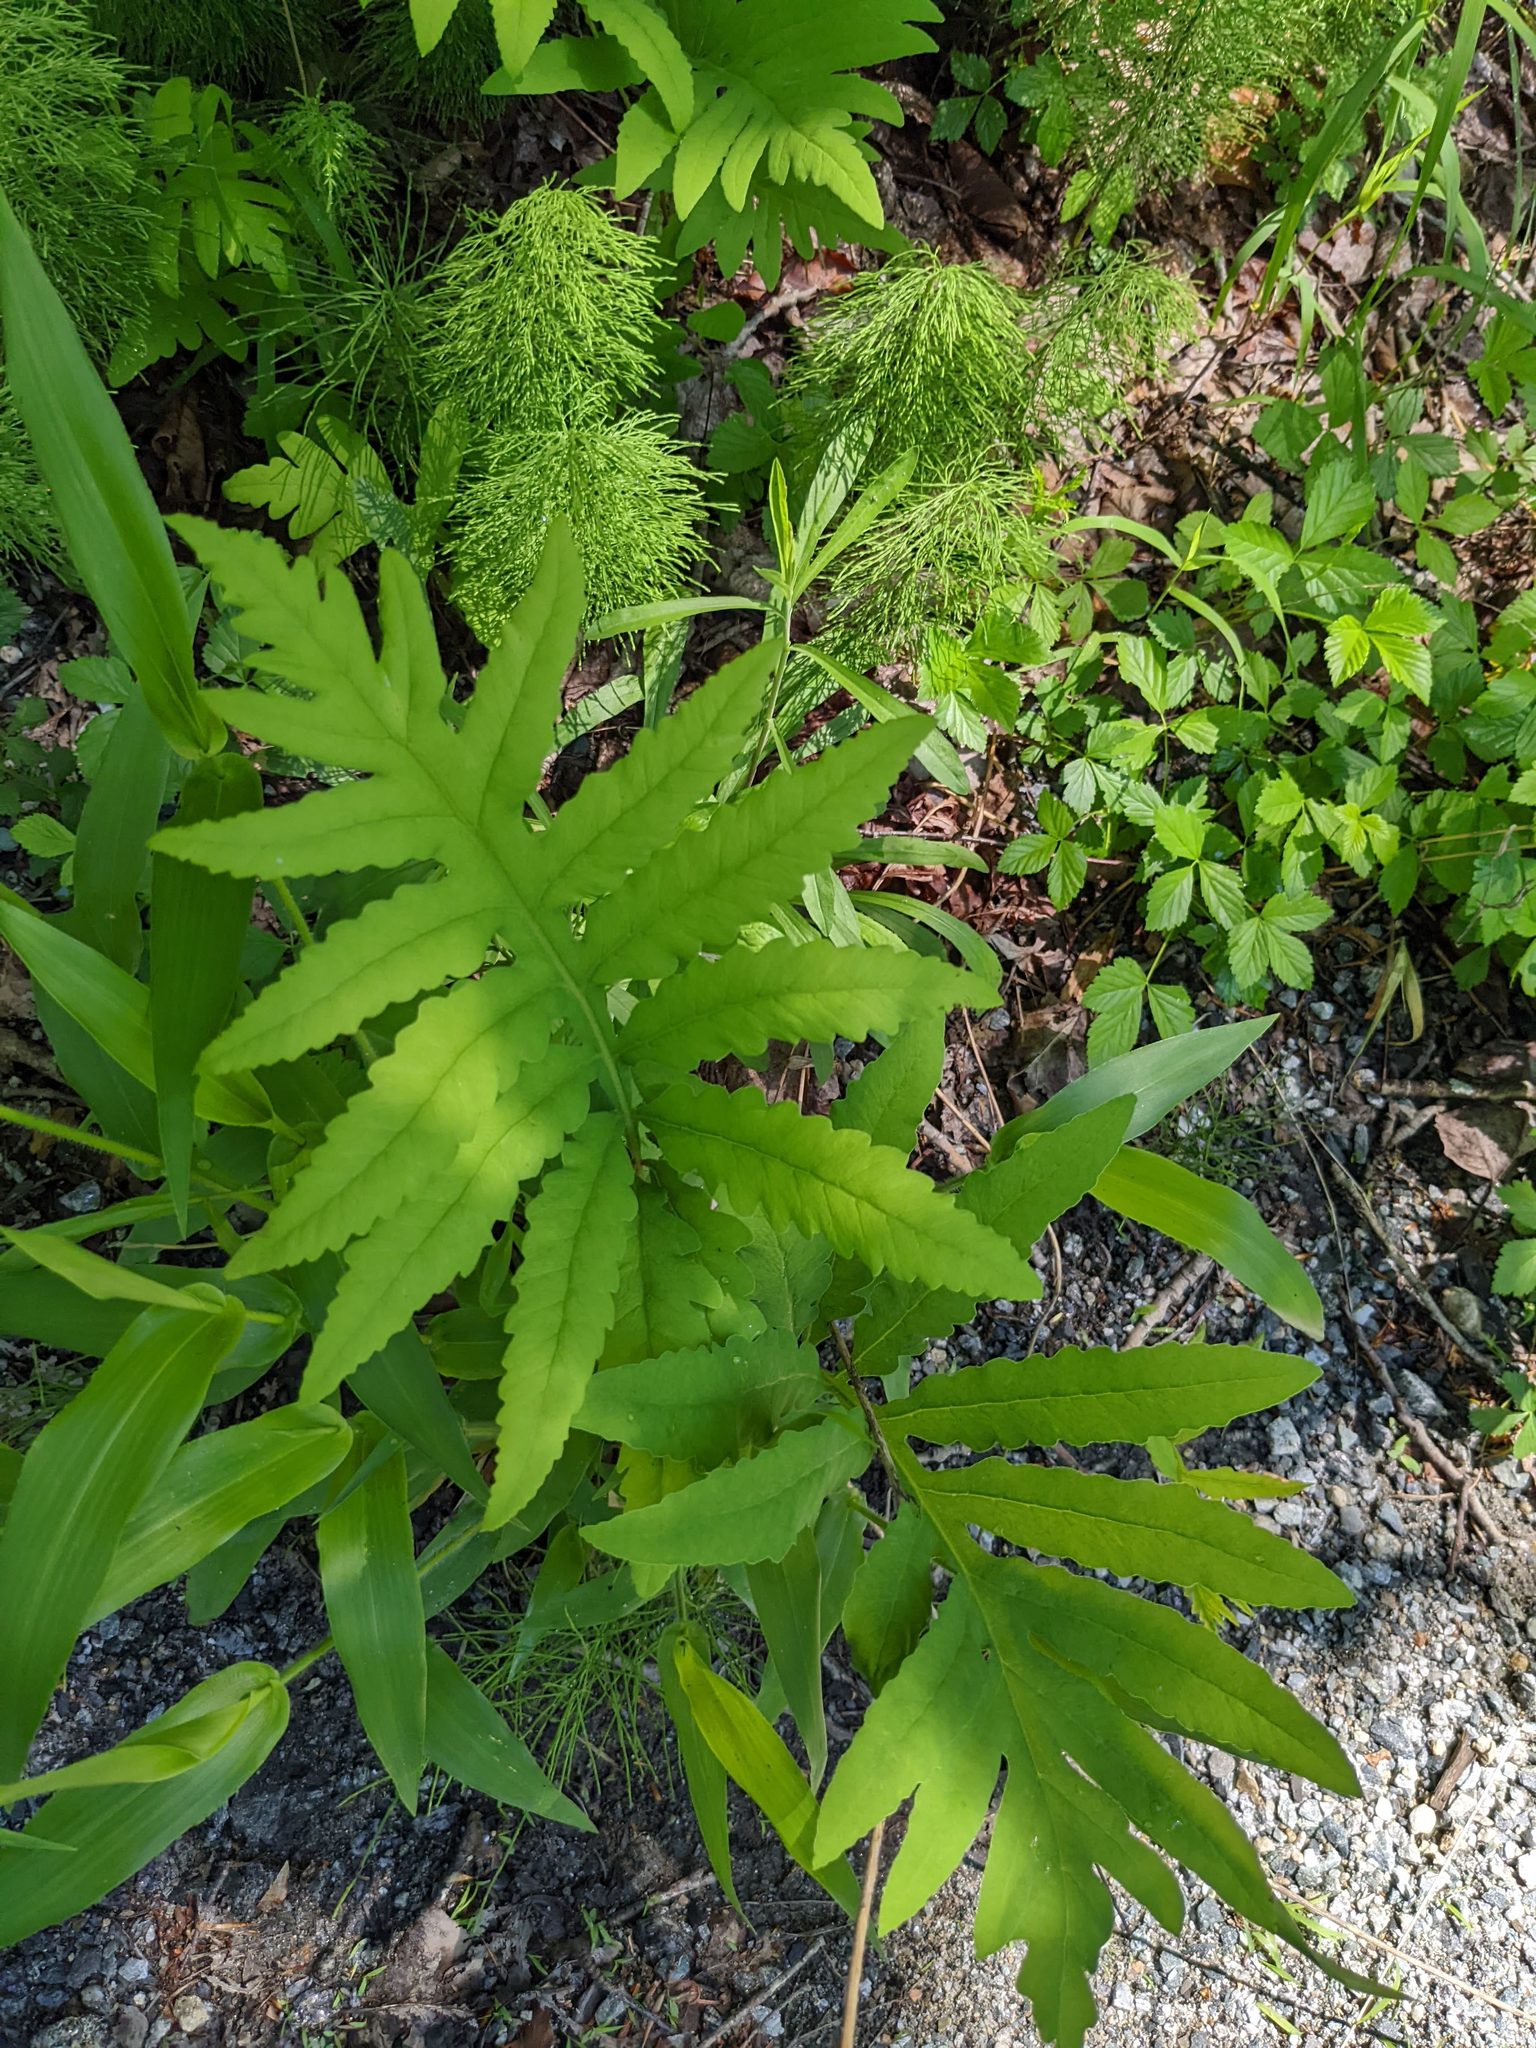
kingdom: Plantae
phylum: Tracheophyta
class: Polypodiopsida
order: Polypodiales
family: Onocleaceae
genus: Onoclea
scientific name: Onoclea sensibilis
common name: Sensitive fern
